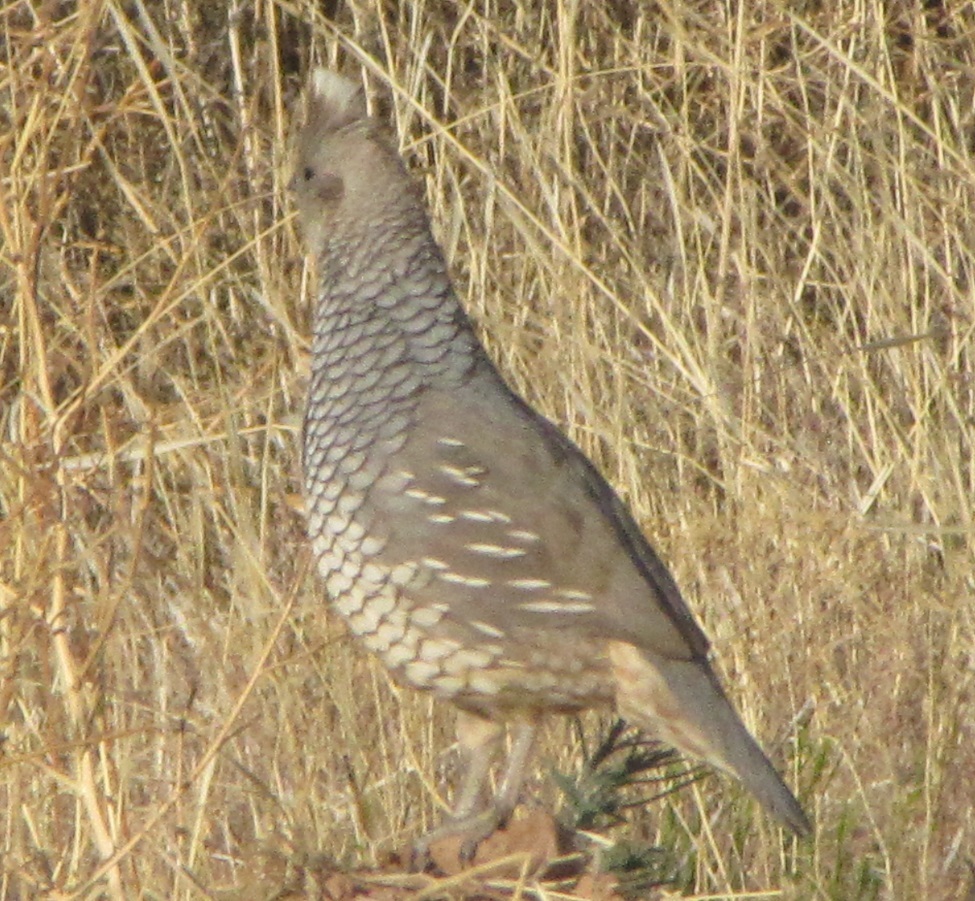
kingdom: Animalia
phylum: Chordata
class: Aves
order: Galliformes
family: Odontophoridae
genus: Callipepla
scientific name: Callipepla squamata
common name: Scaled quail
